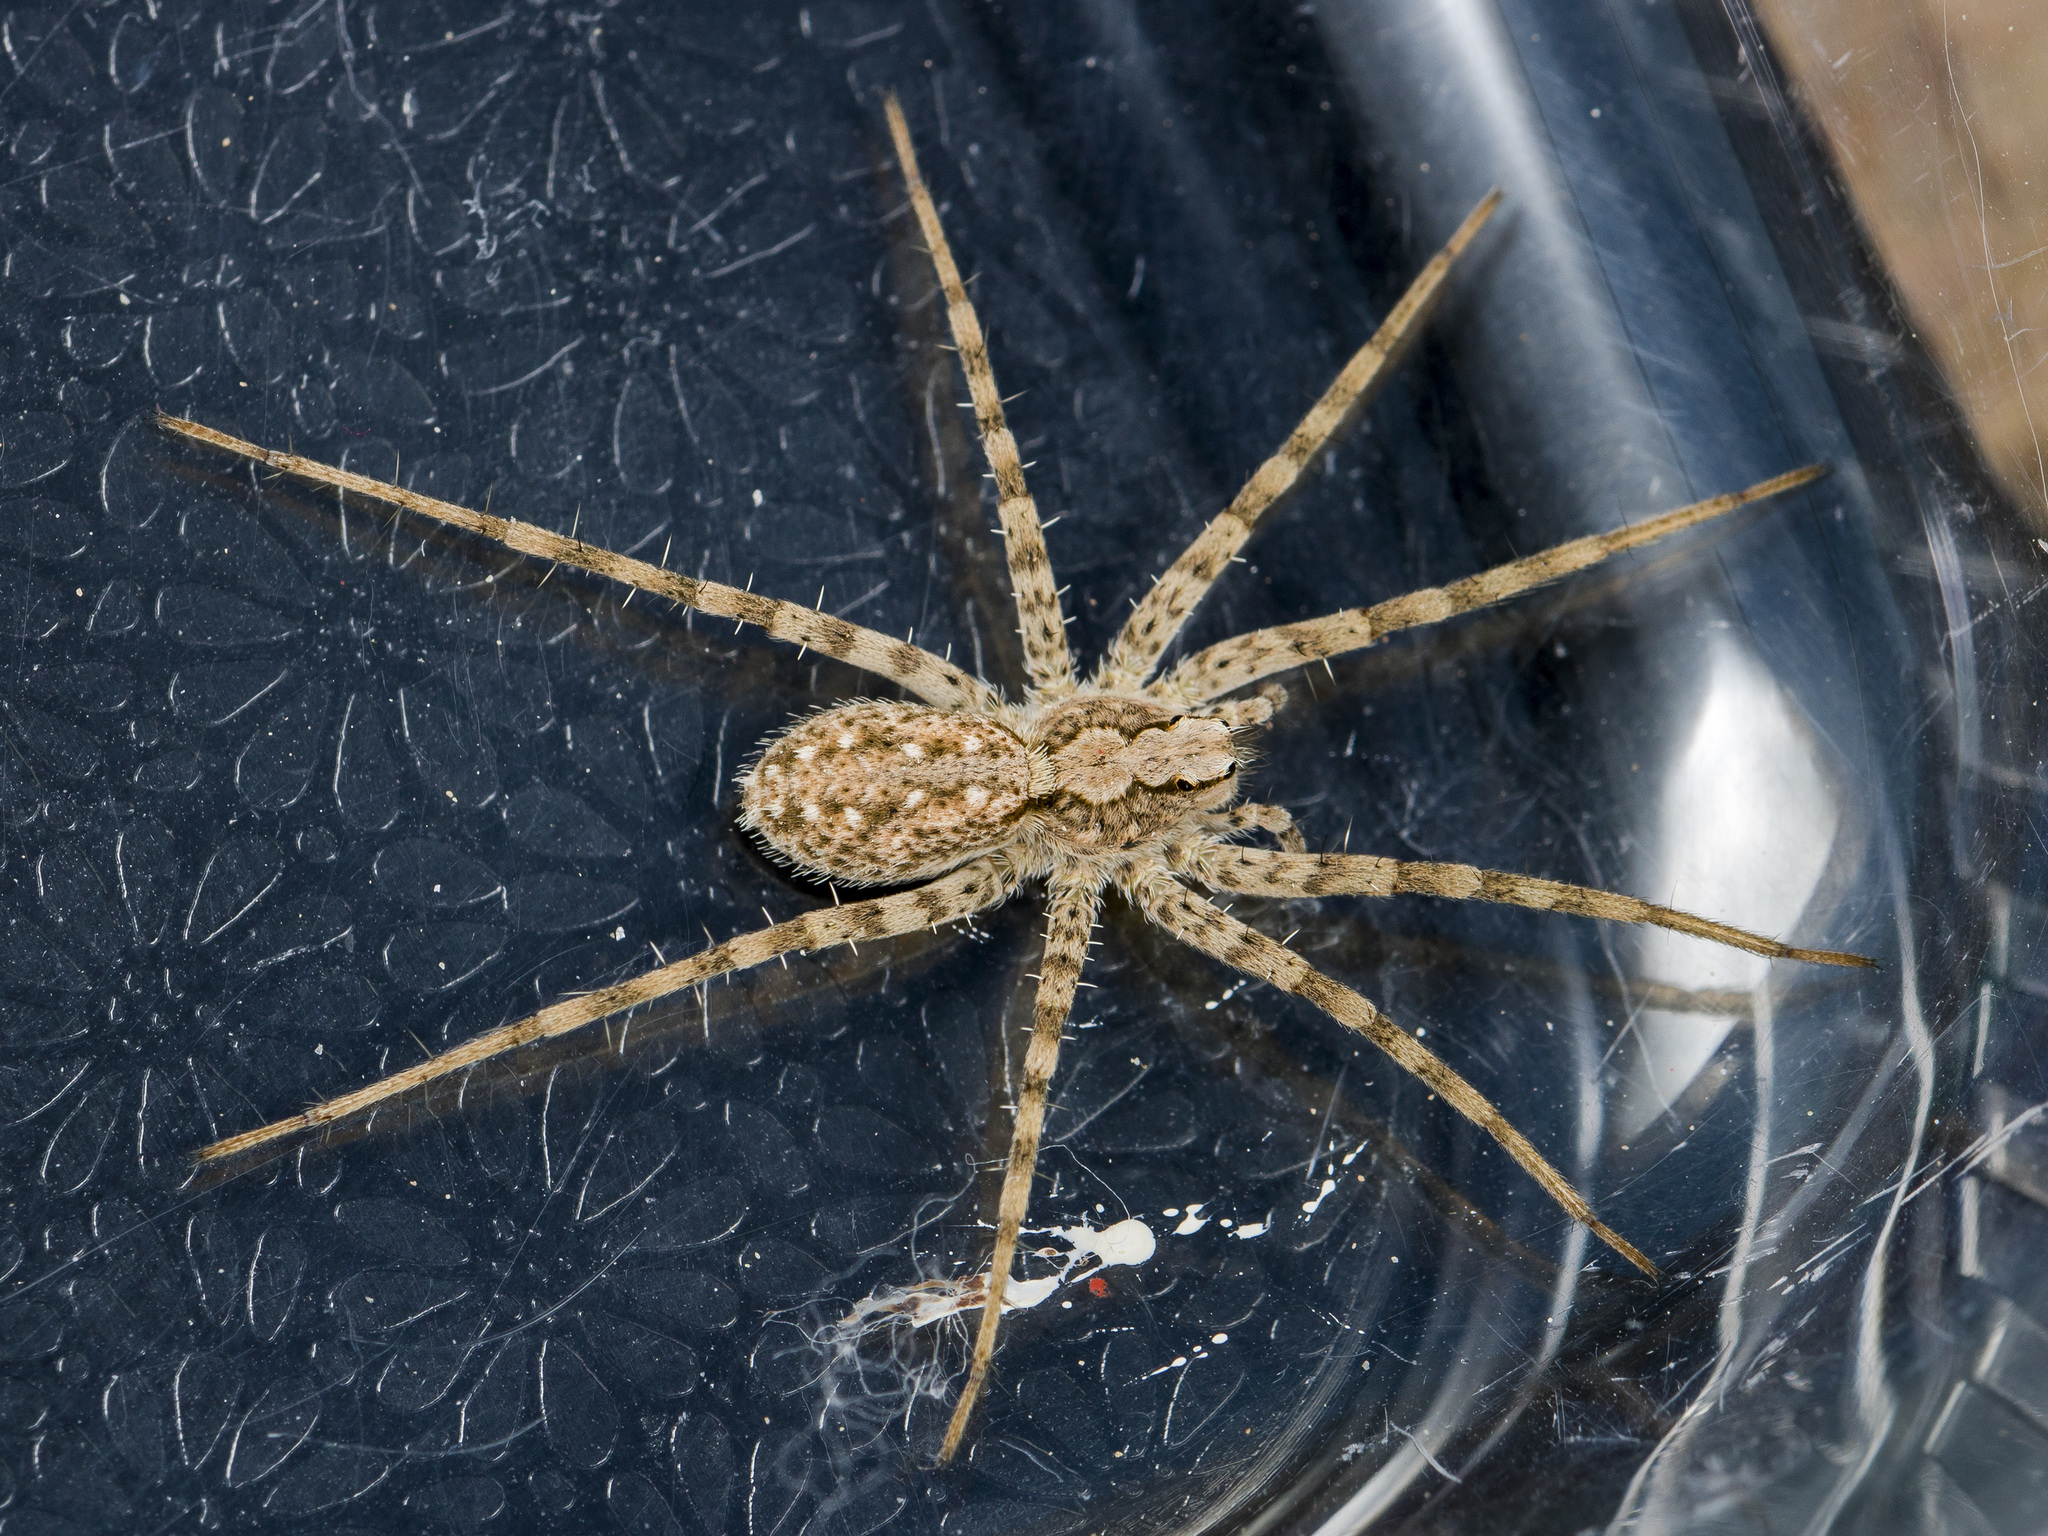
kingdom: Animalia
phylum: Arthropoda
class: Arachnida
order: Araneae
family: Lycosidae
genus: Evippa
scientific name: Evippa sjostedti
